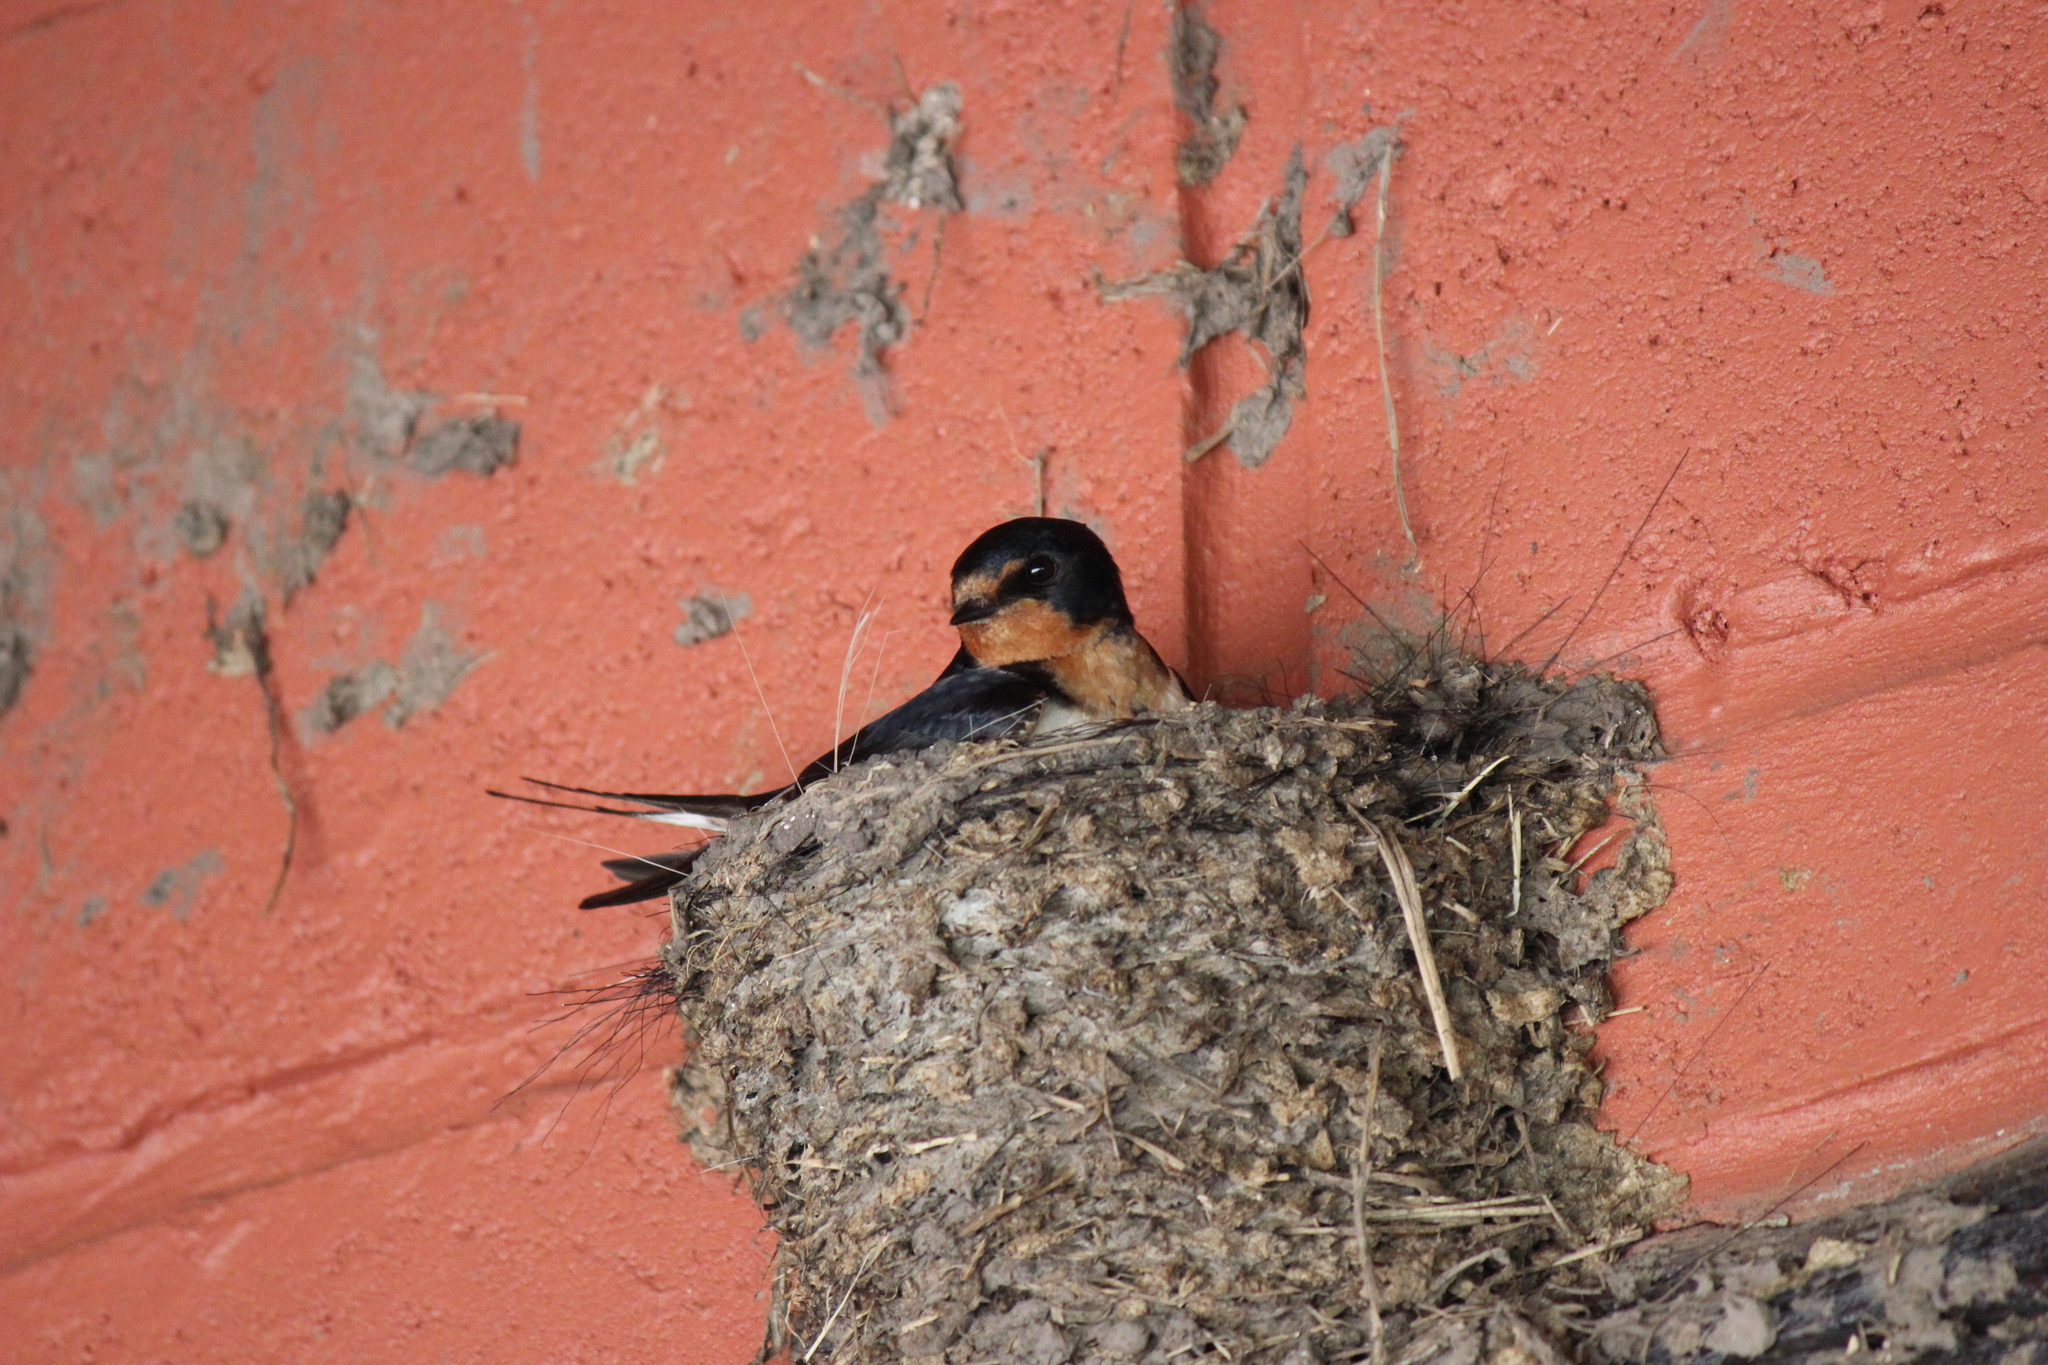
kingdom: Animalia
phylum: Chordata
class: Aves
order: Passeriformes
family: Hirundinidae
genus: Hirundo
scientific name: Hirundo rustica
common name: Barn swallow
